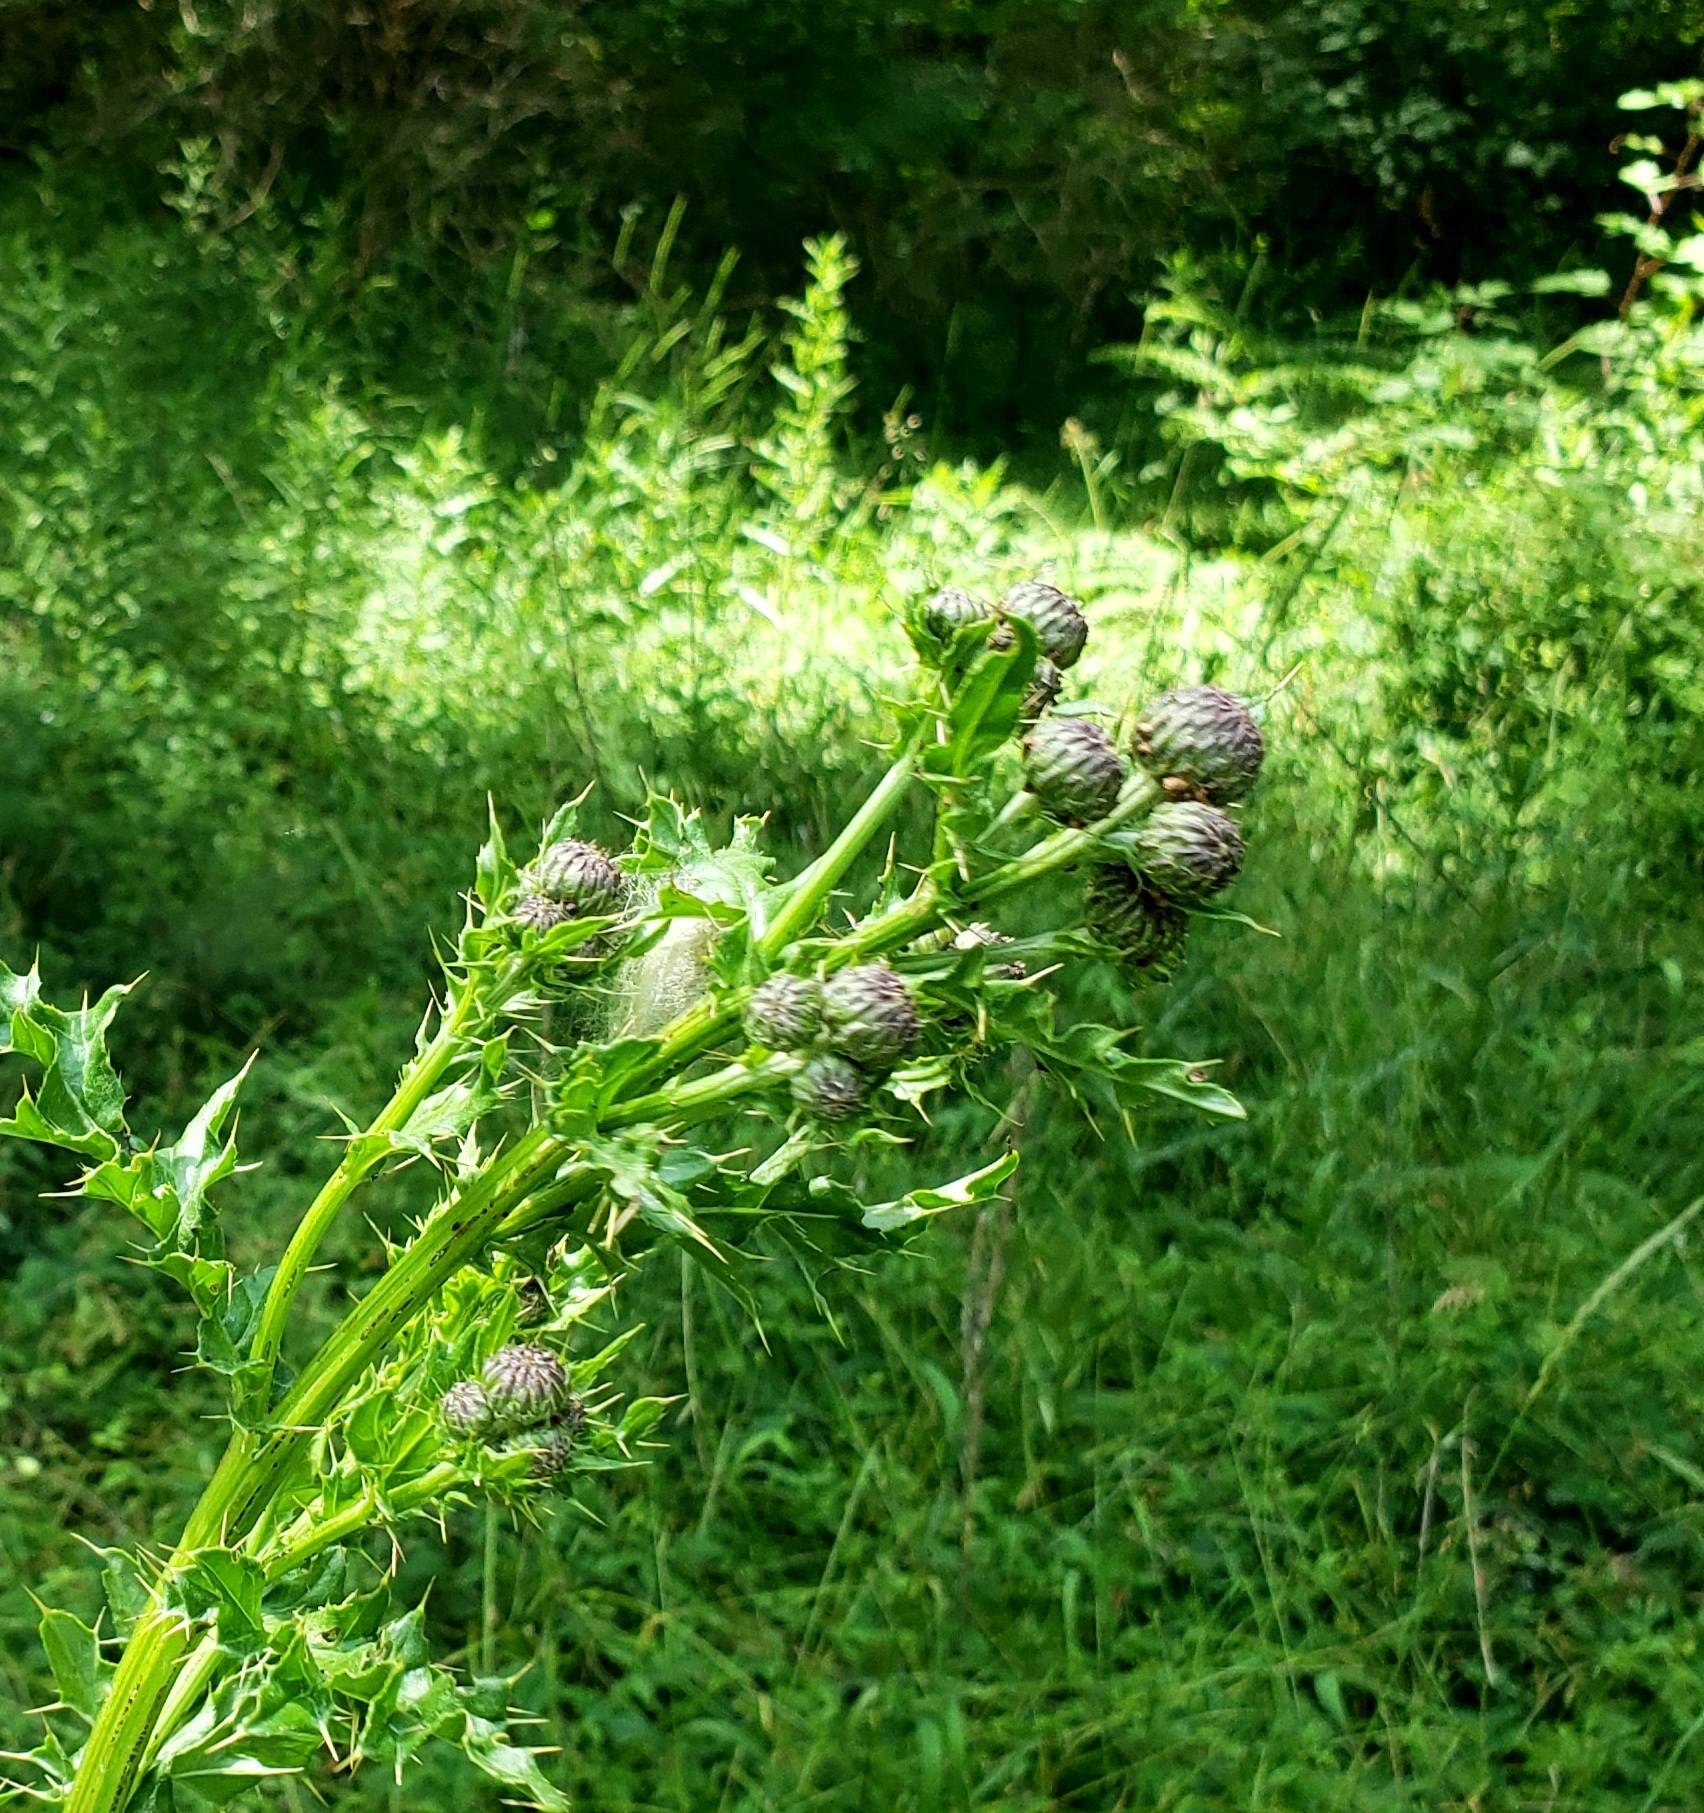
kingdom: Plantae
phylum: Tracheophyta
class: Magnoliopsida
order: Asterales
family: Asteraceae
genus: Cirsium
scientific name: Cirsium arvense
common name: Creeping thistle
